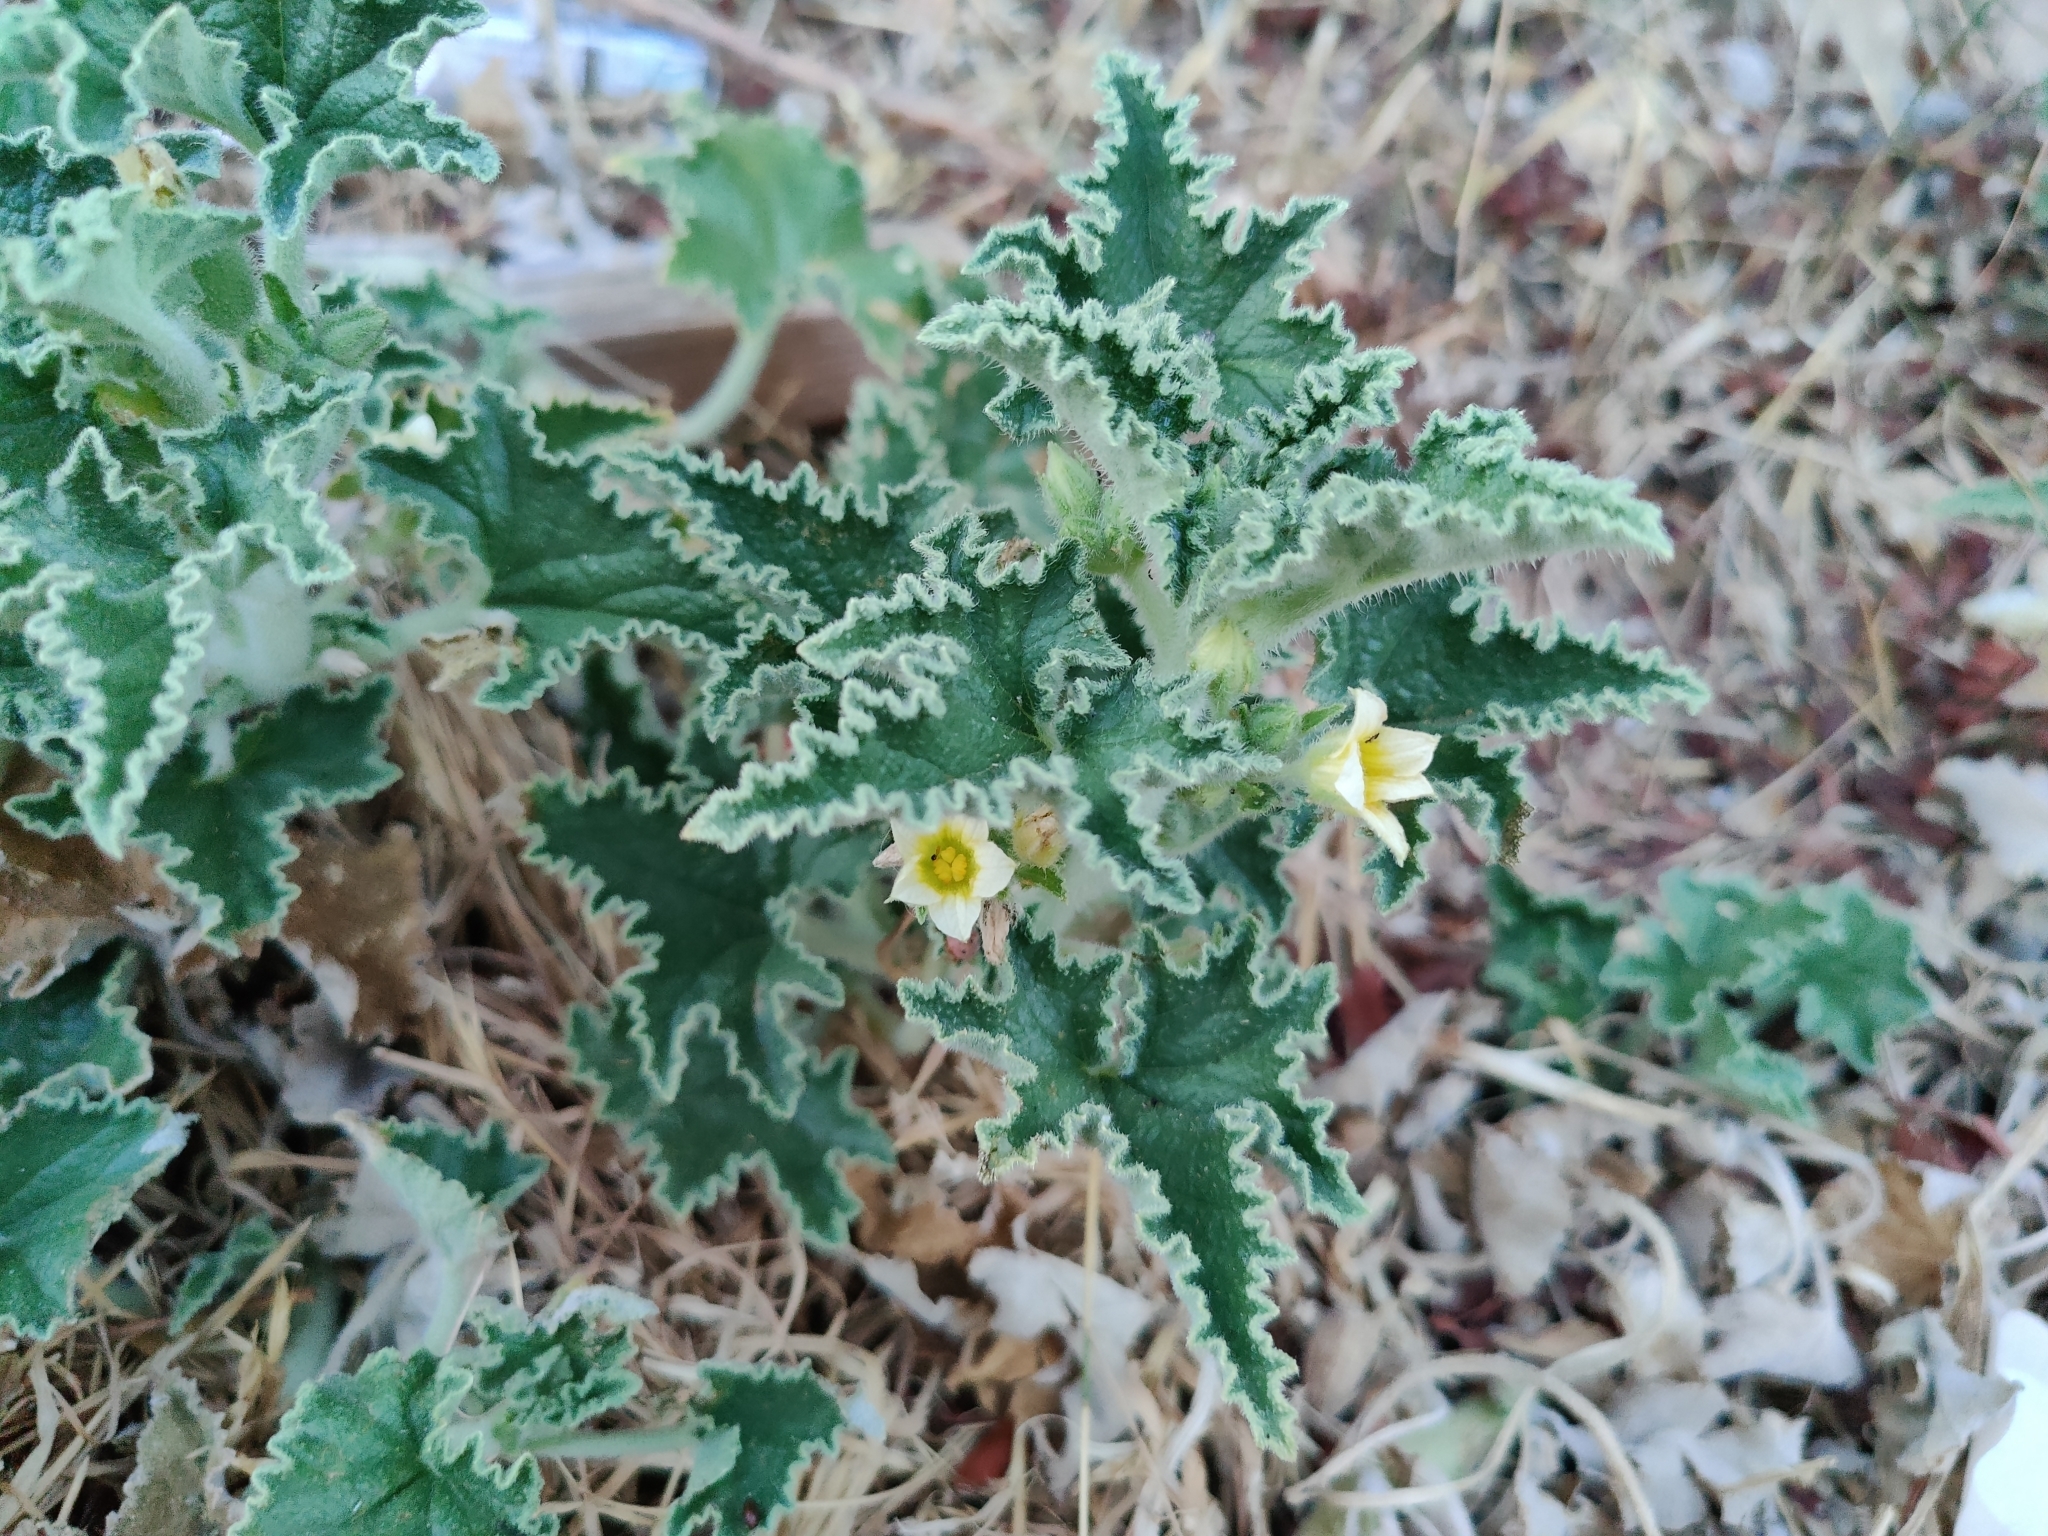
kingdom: Plantae
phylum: Tracheophyta
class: Magnoliopsida
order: Cucurbitales
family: Cucurbitaceae
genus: Ecballium
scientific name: Ecballium elaterium
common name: Squirting cucumber
